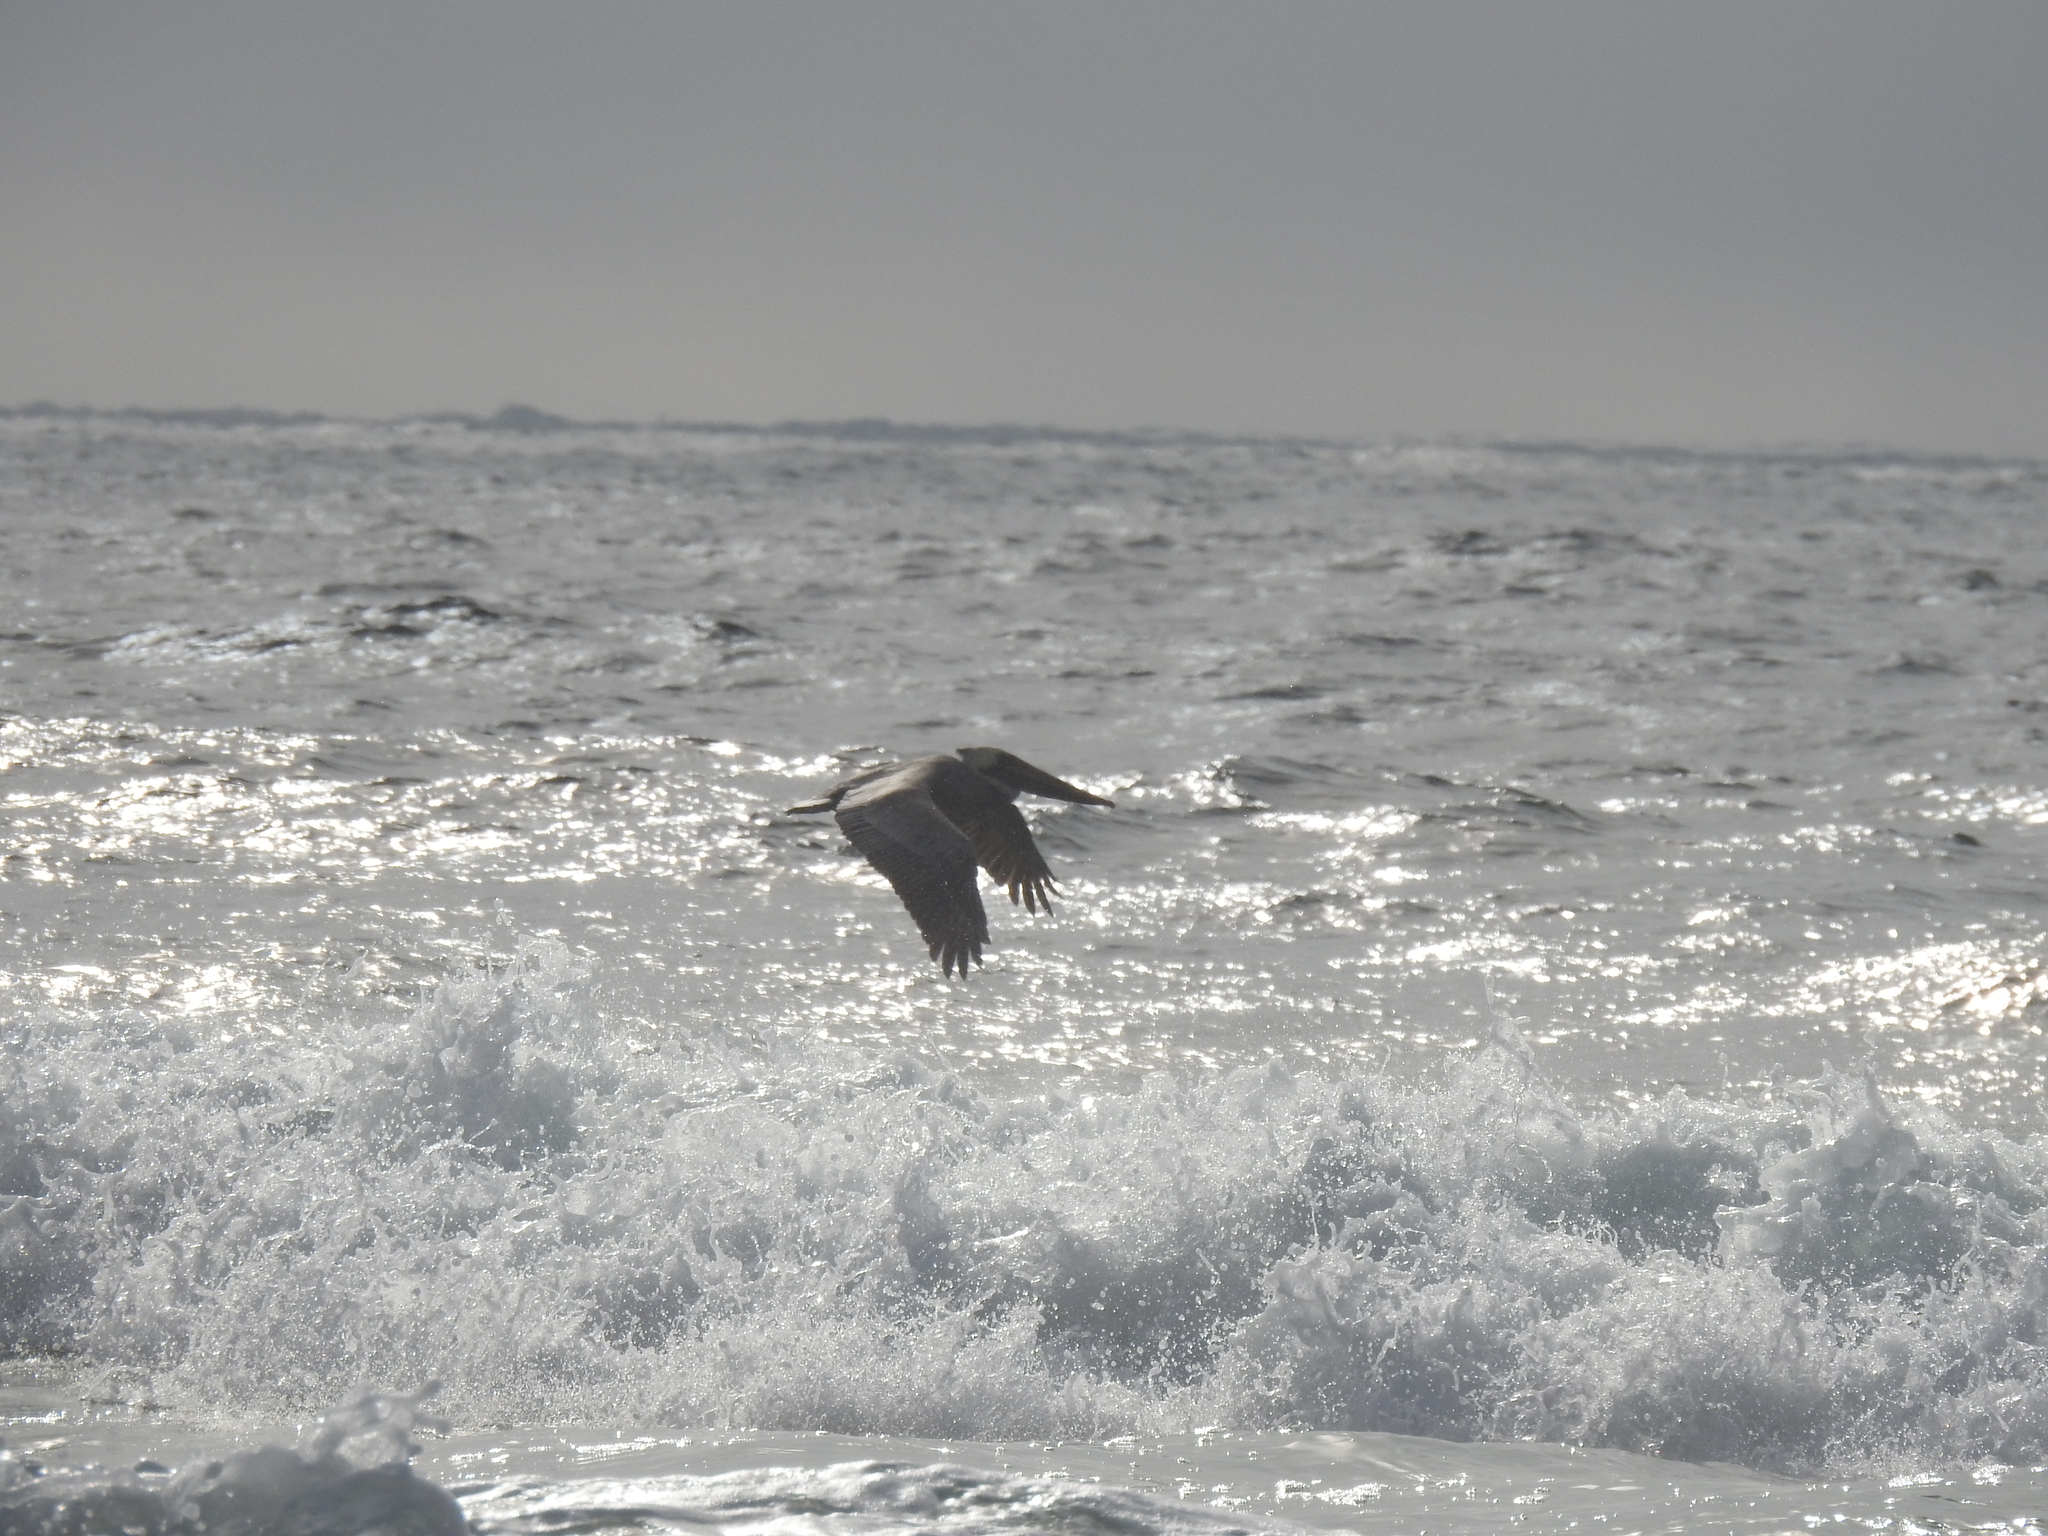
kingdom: Animalia
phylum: Chordata
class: Aves
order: Pelecaniformes
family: Pelecanidae
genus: Pelecanus
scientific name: Pelecanus occidentalis
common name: Brown pelican
